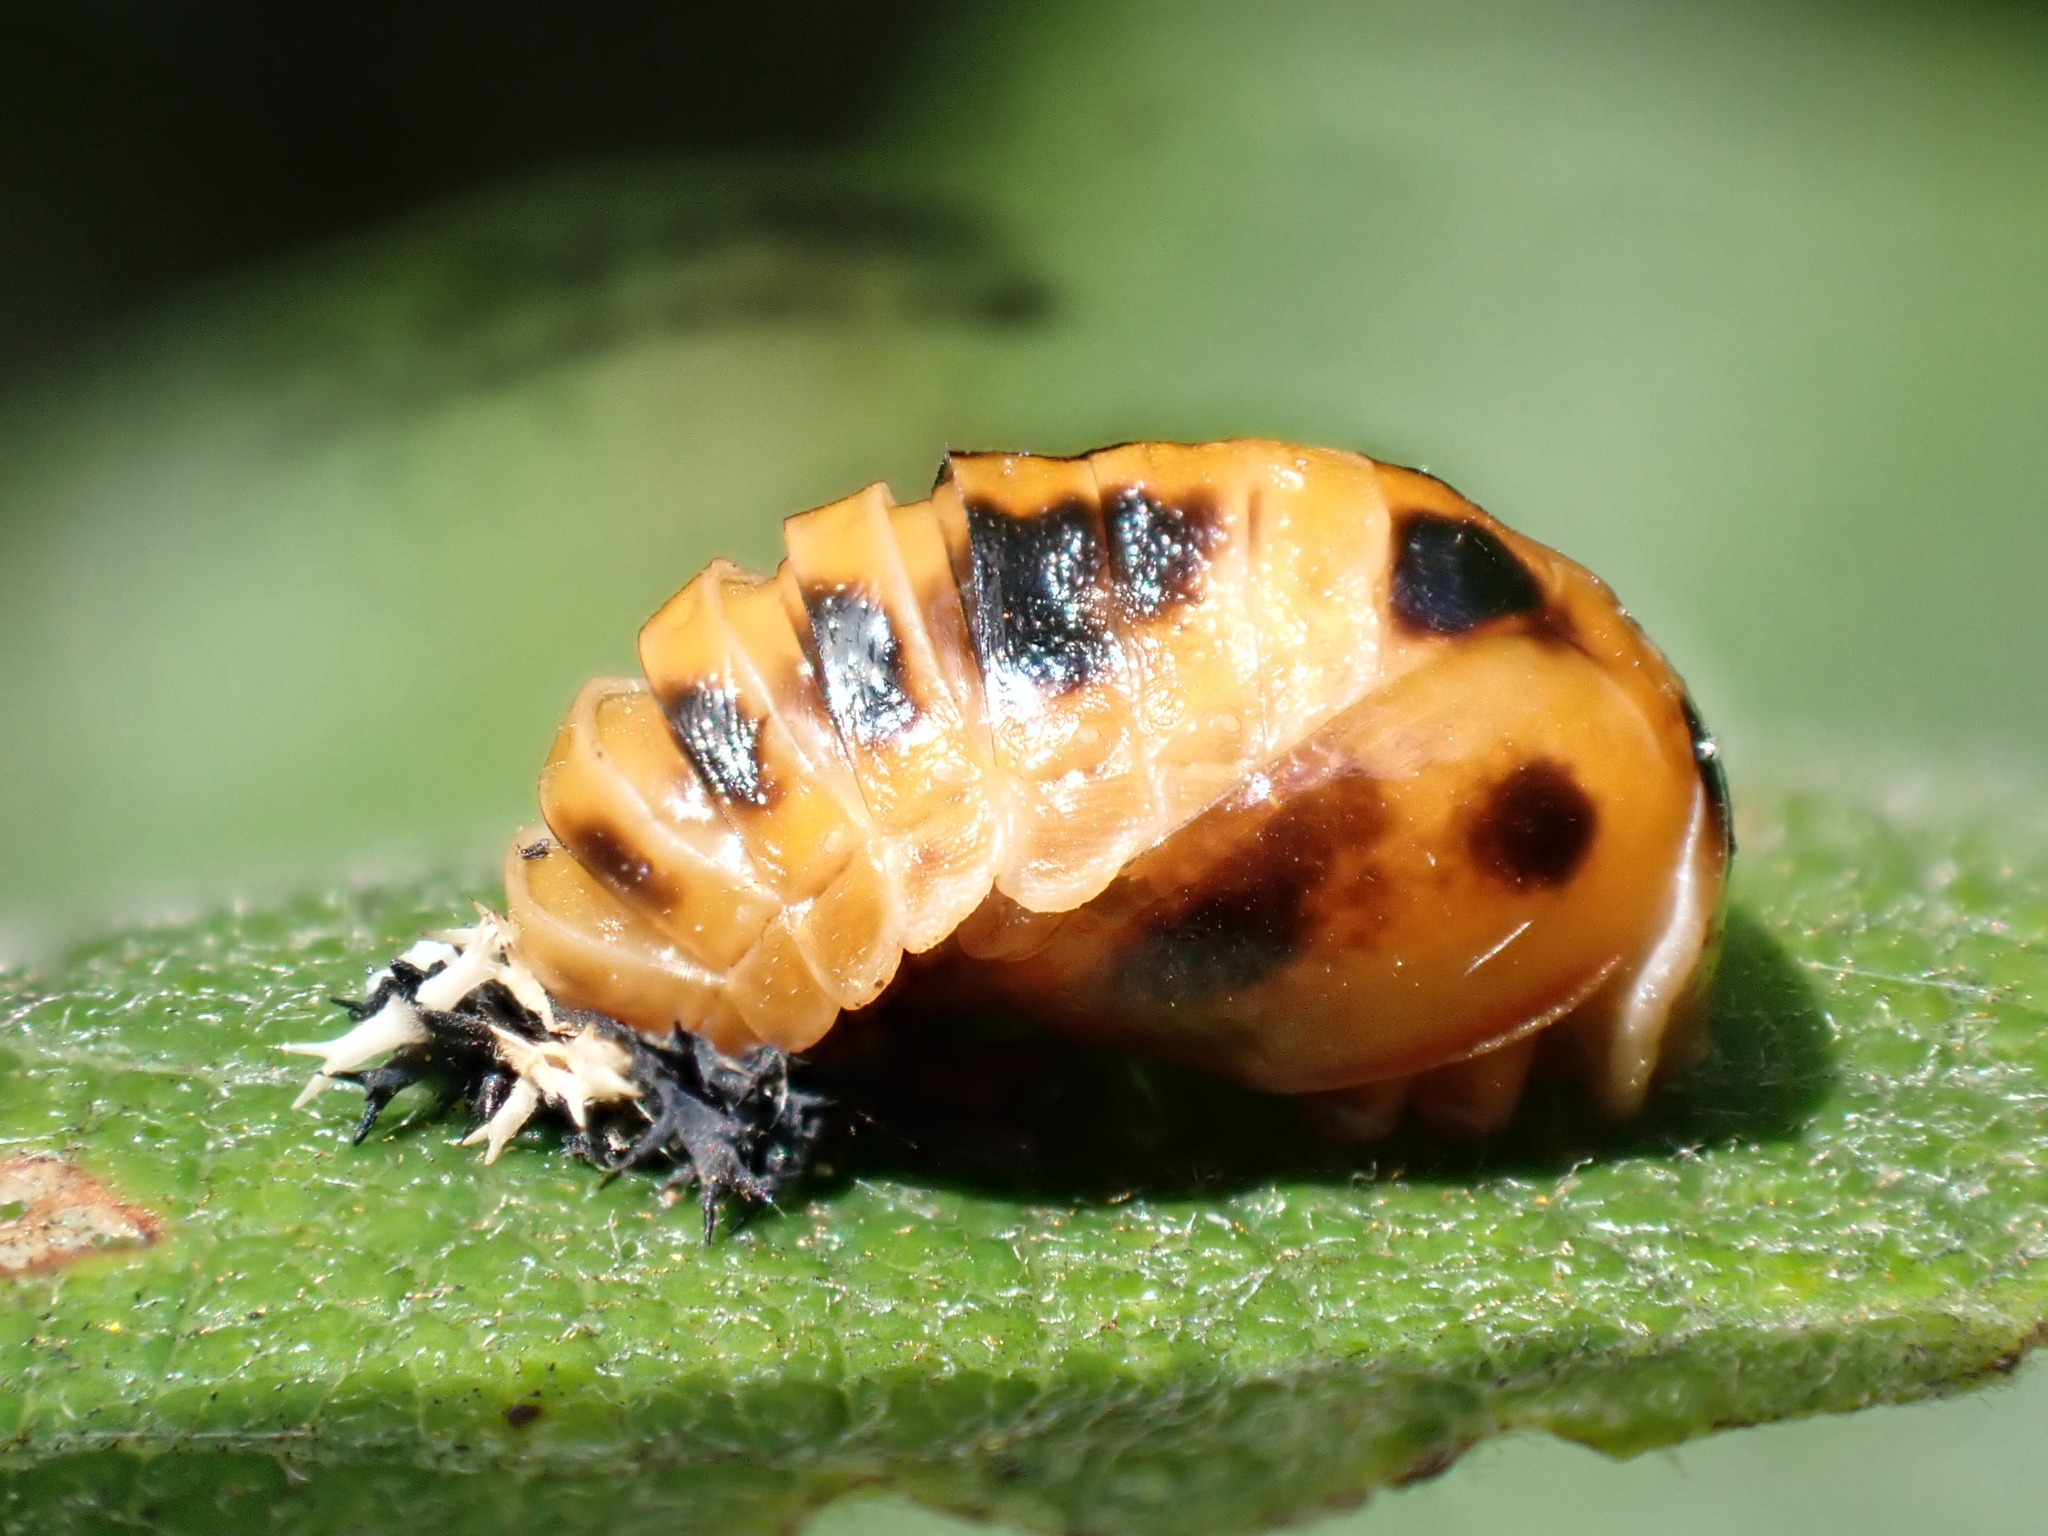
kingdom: Animalia
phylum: Arthropoda
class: Insecta
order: Coleoptera
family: Coccinellidae
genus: Harmonia
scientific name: Harmonia axyridis
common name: Harlequin ladybird
